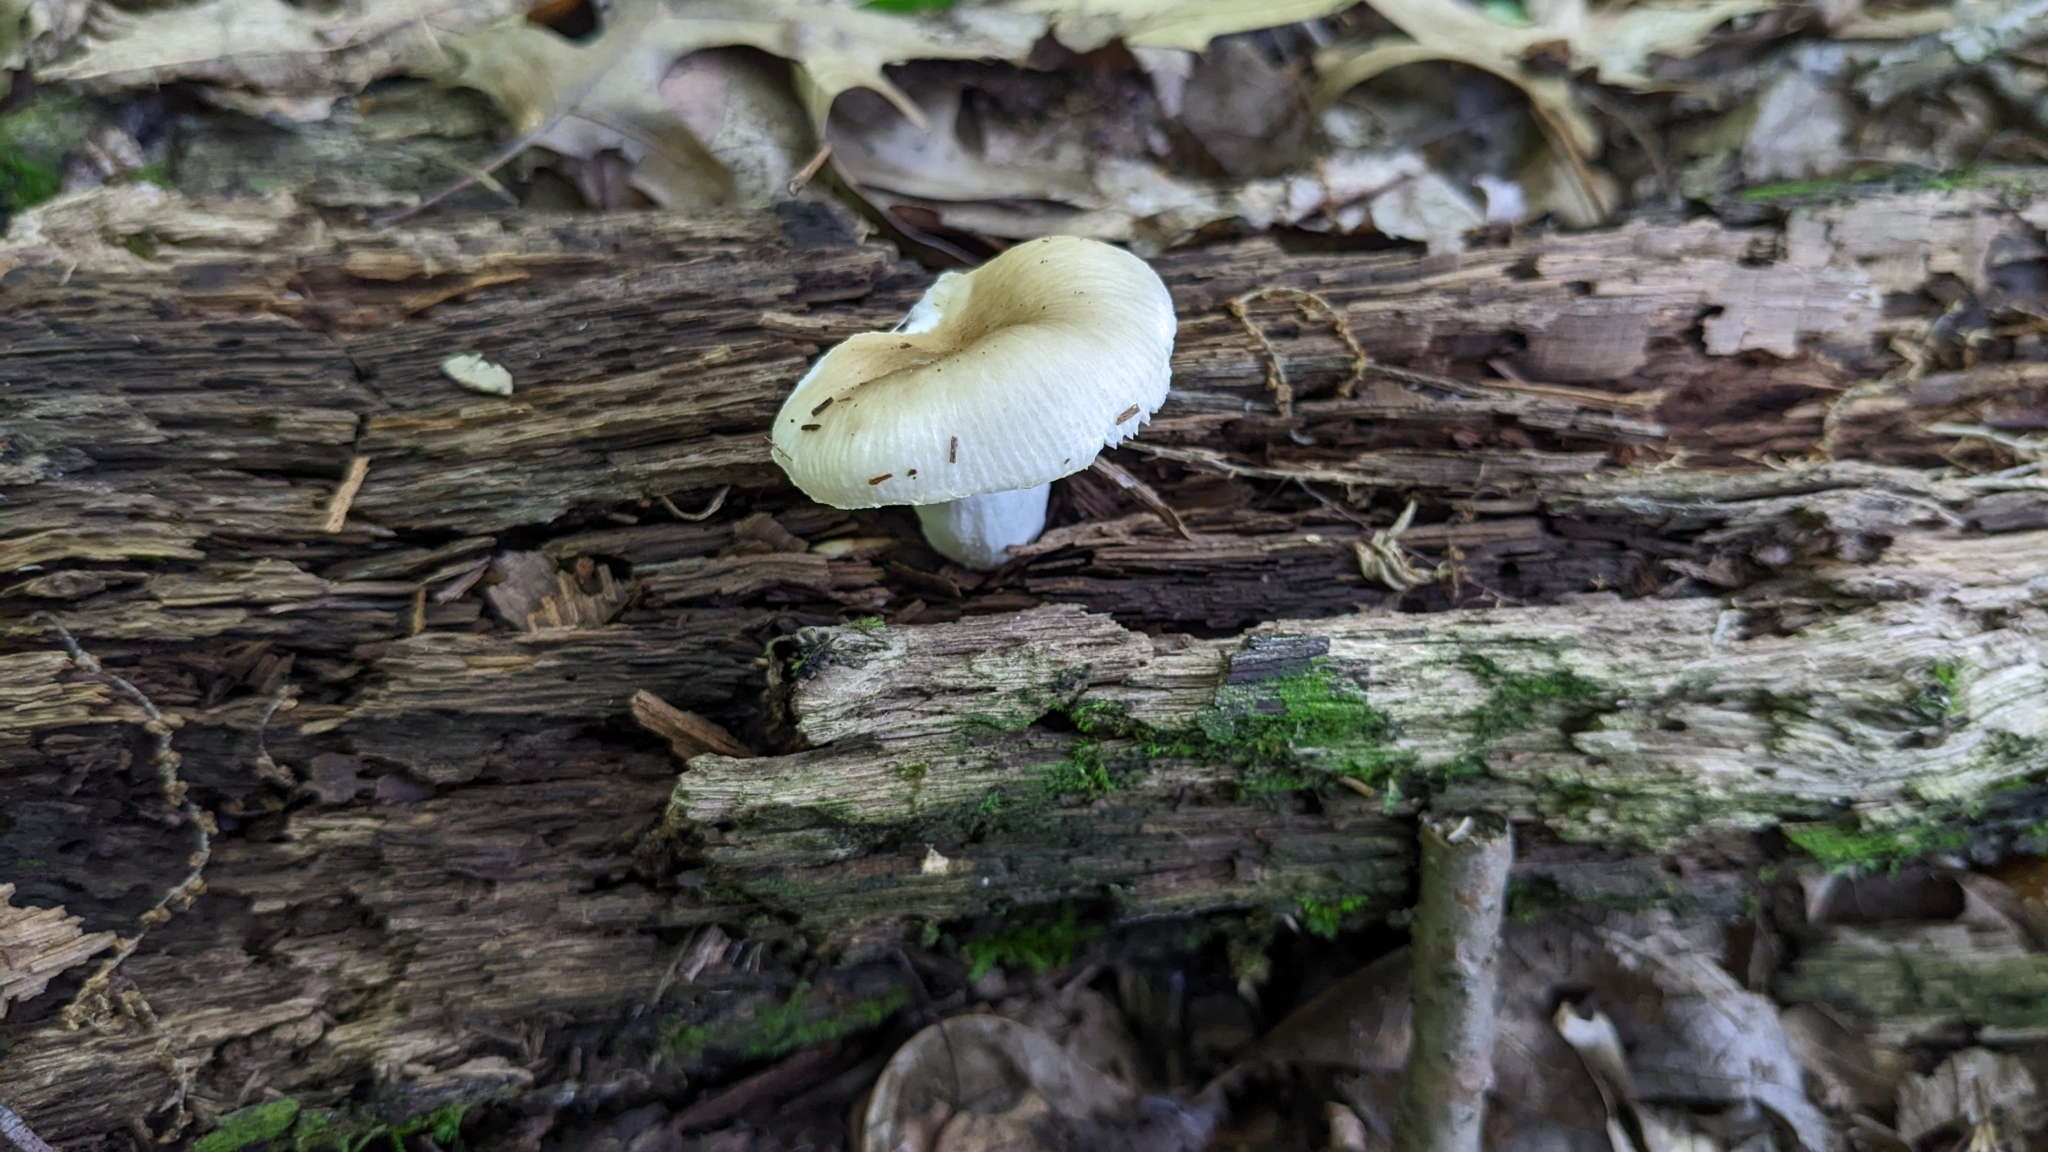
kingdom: Fungi
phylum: Basidiomycota
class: Agaricomycetes
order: Russulales
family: Russulaceae
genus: Russula
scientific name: Russula pectinatoides
